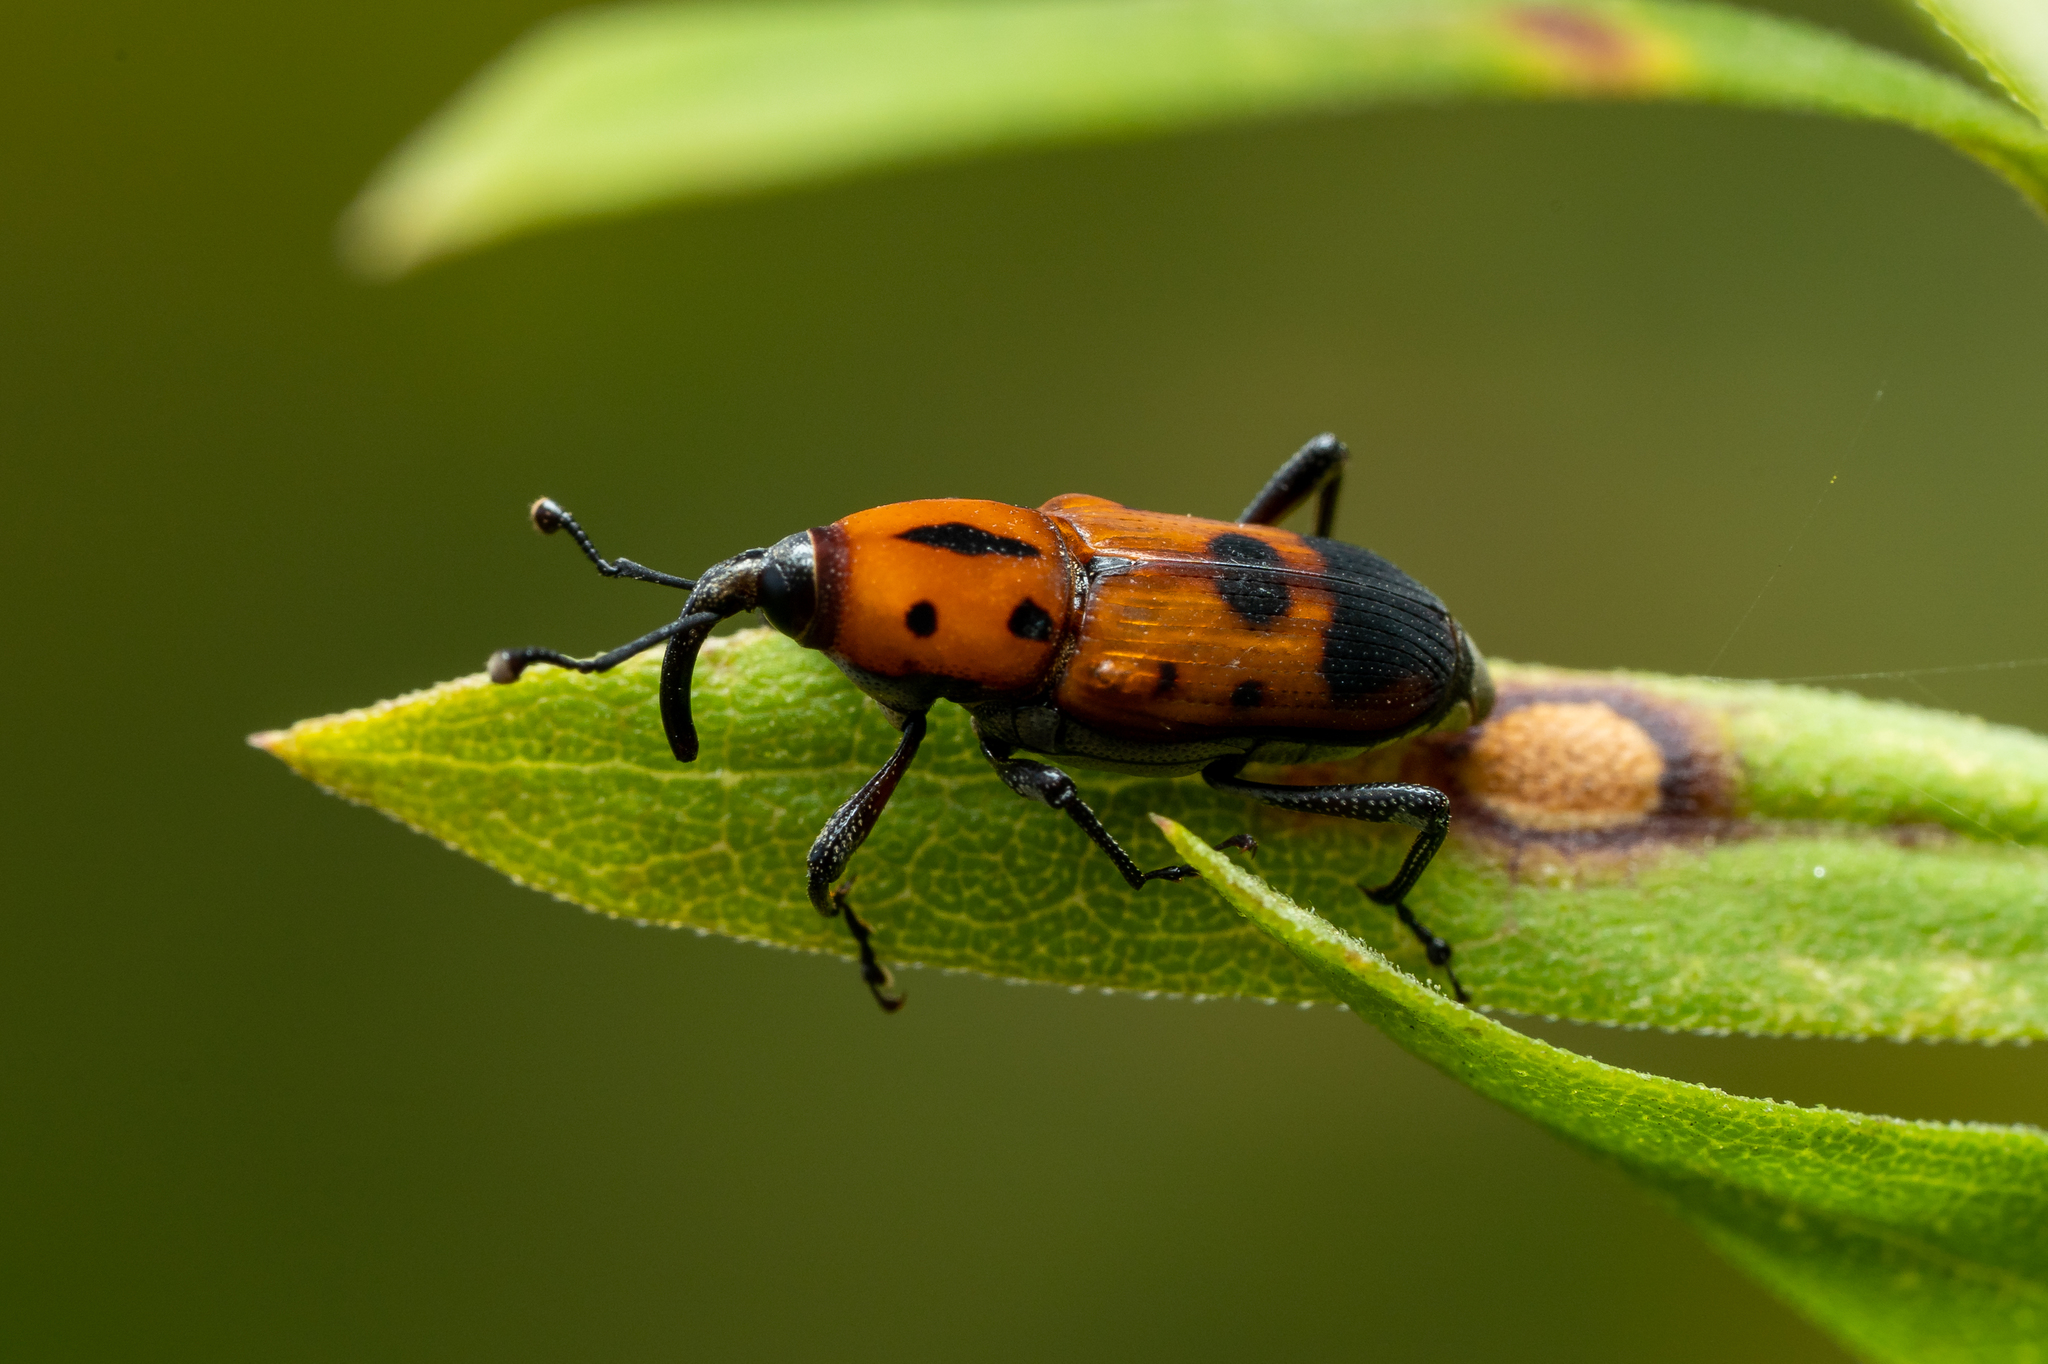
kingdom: Animalia
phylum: Arthropoda
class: Insecta
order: Coleoptera
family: Dryophthoridae
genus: Rhodobaenus
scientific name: Rhodobaenus quinquepunctatus
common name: Cocklebur weevil
